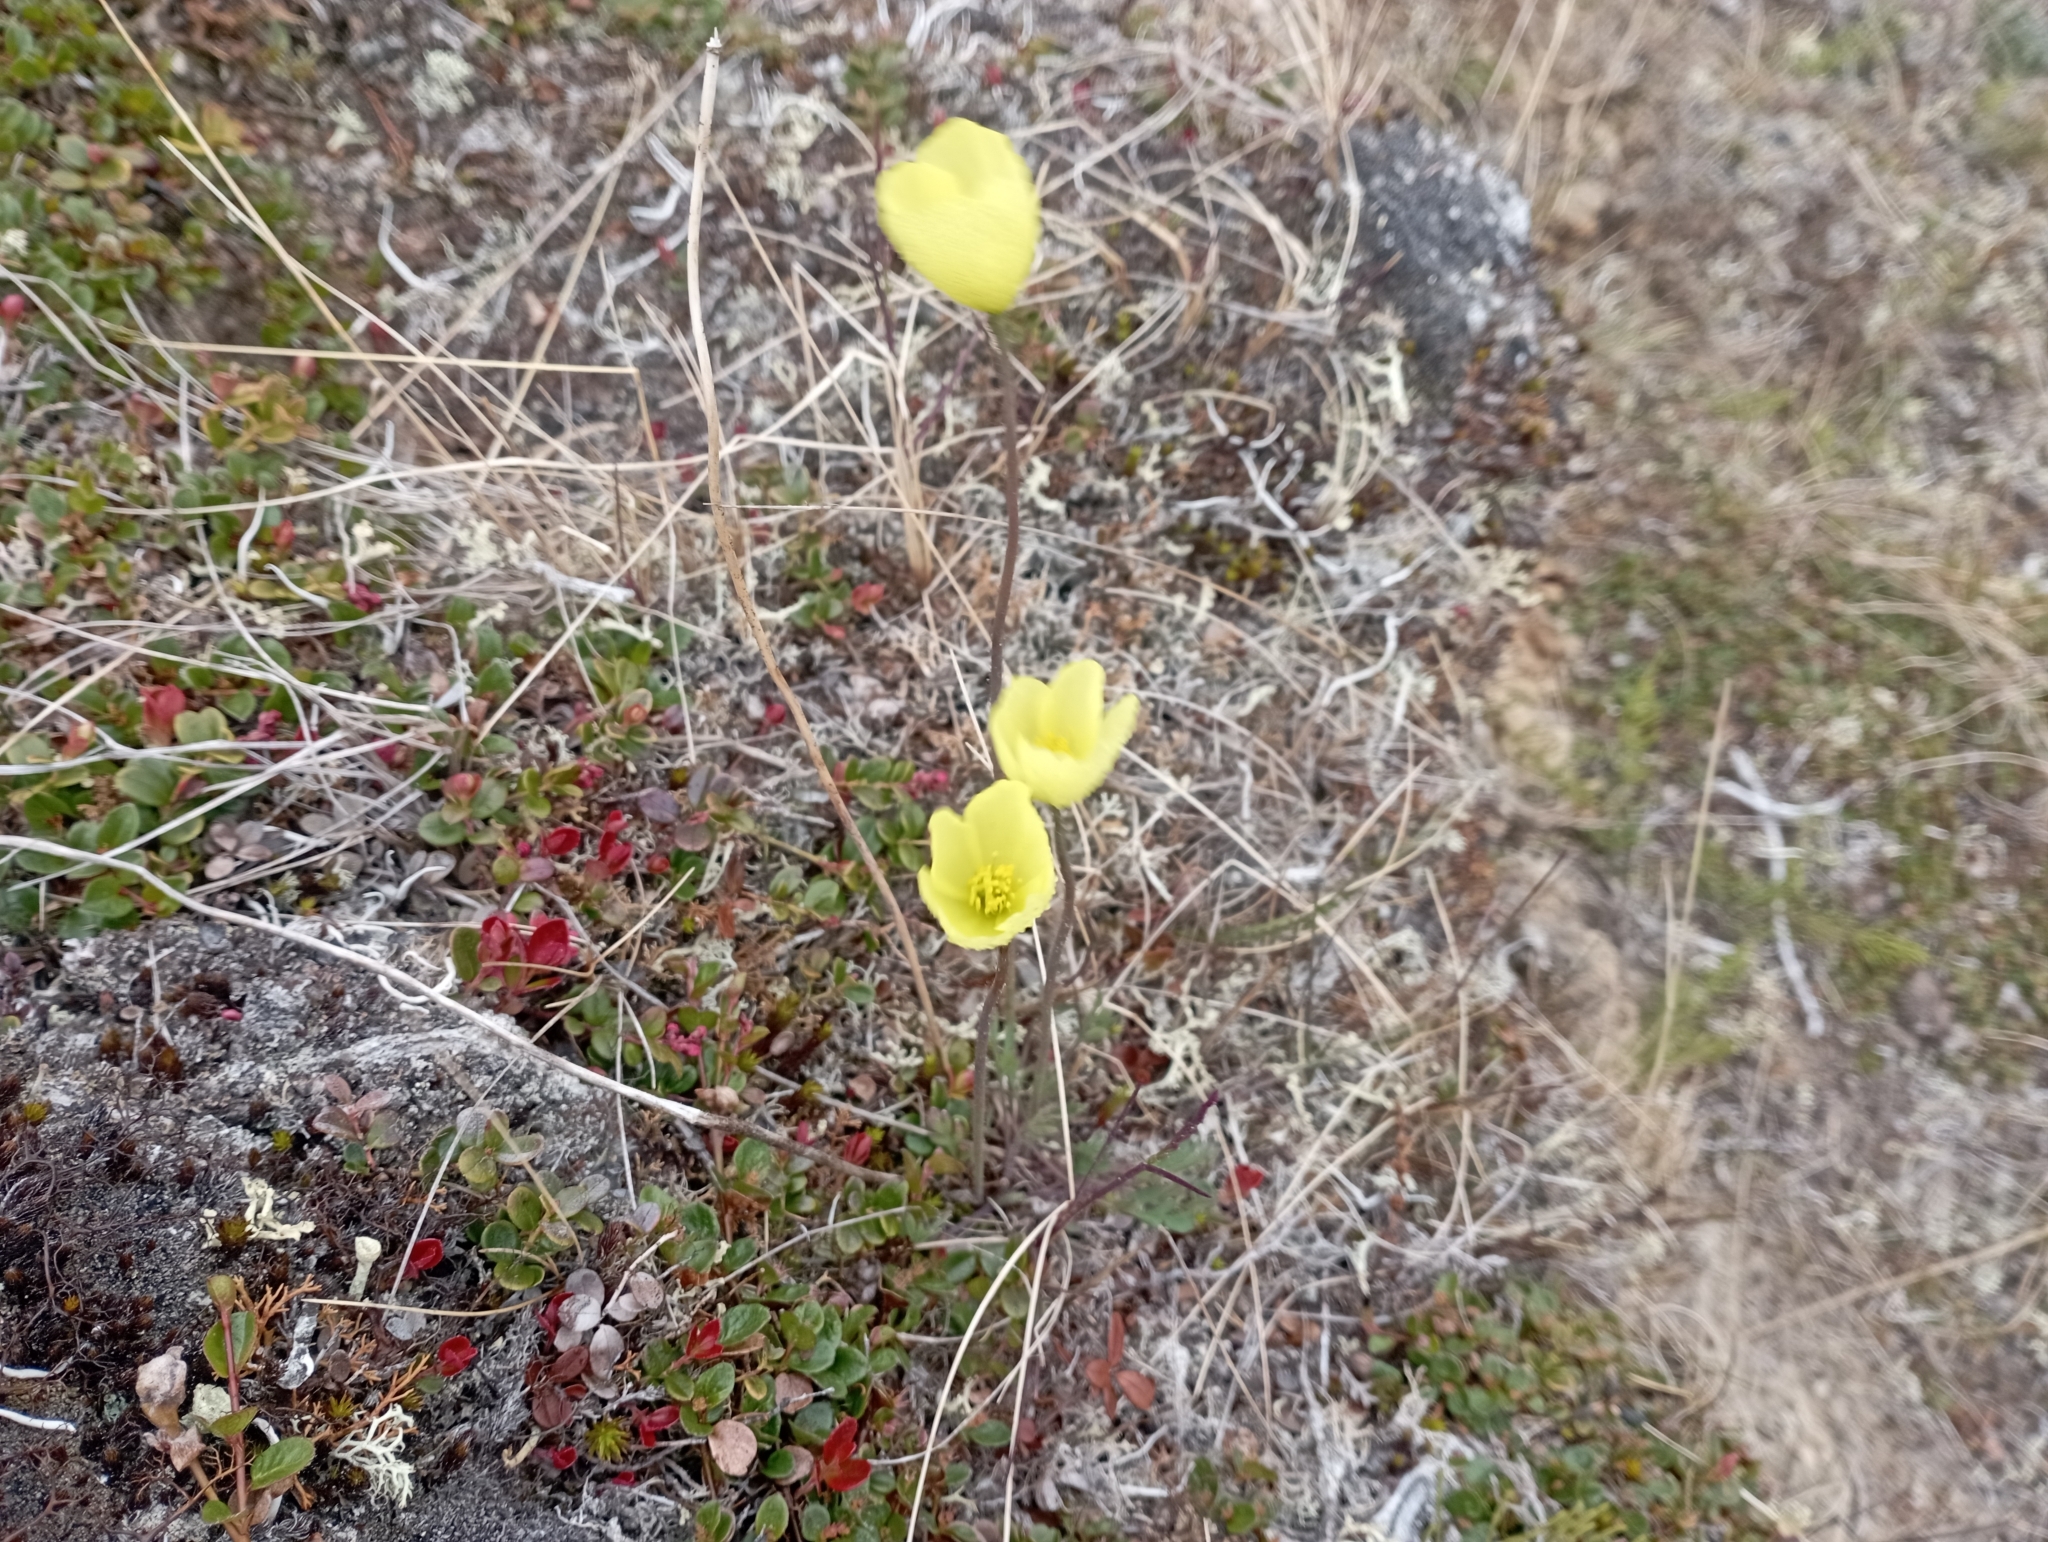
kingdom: Plantae
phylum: Tracheophyta
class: Magnoliopsida
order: Ranunculales
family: Papaveraceae
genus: Papaver
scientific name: Papaver lapponicum
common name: Lapland poppy
